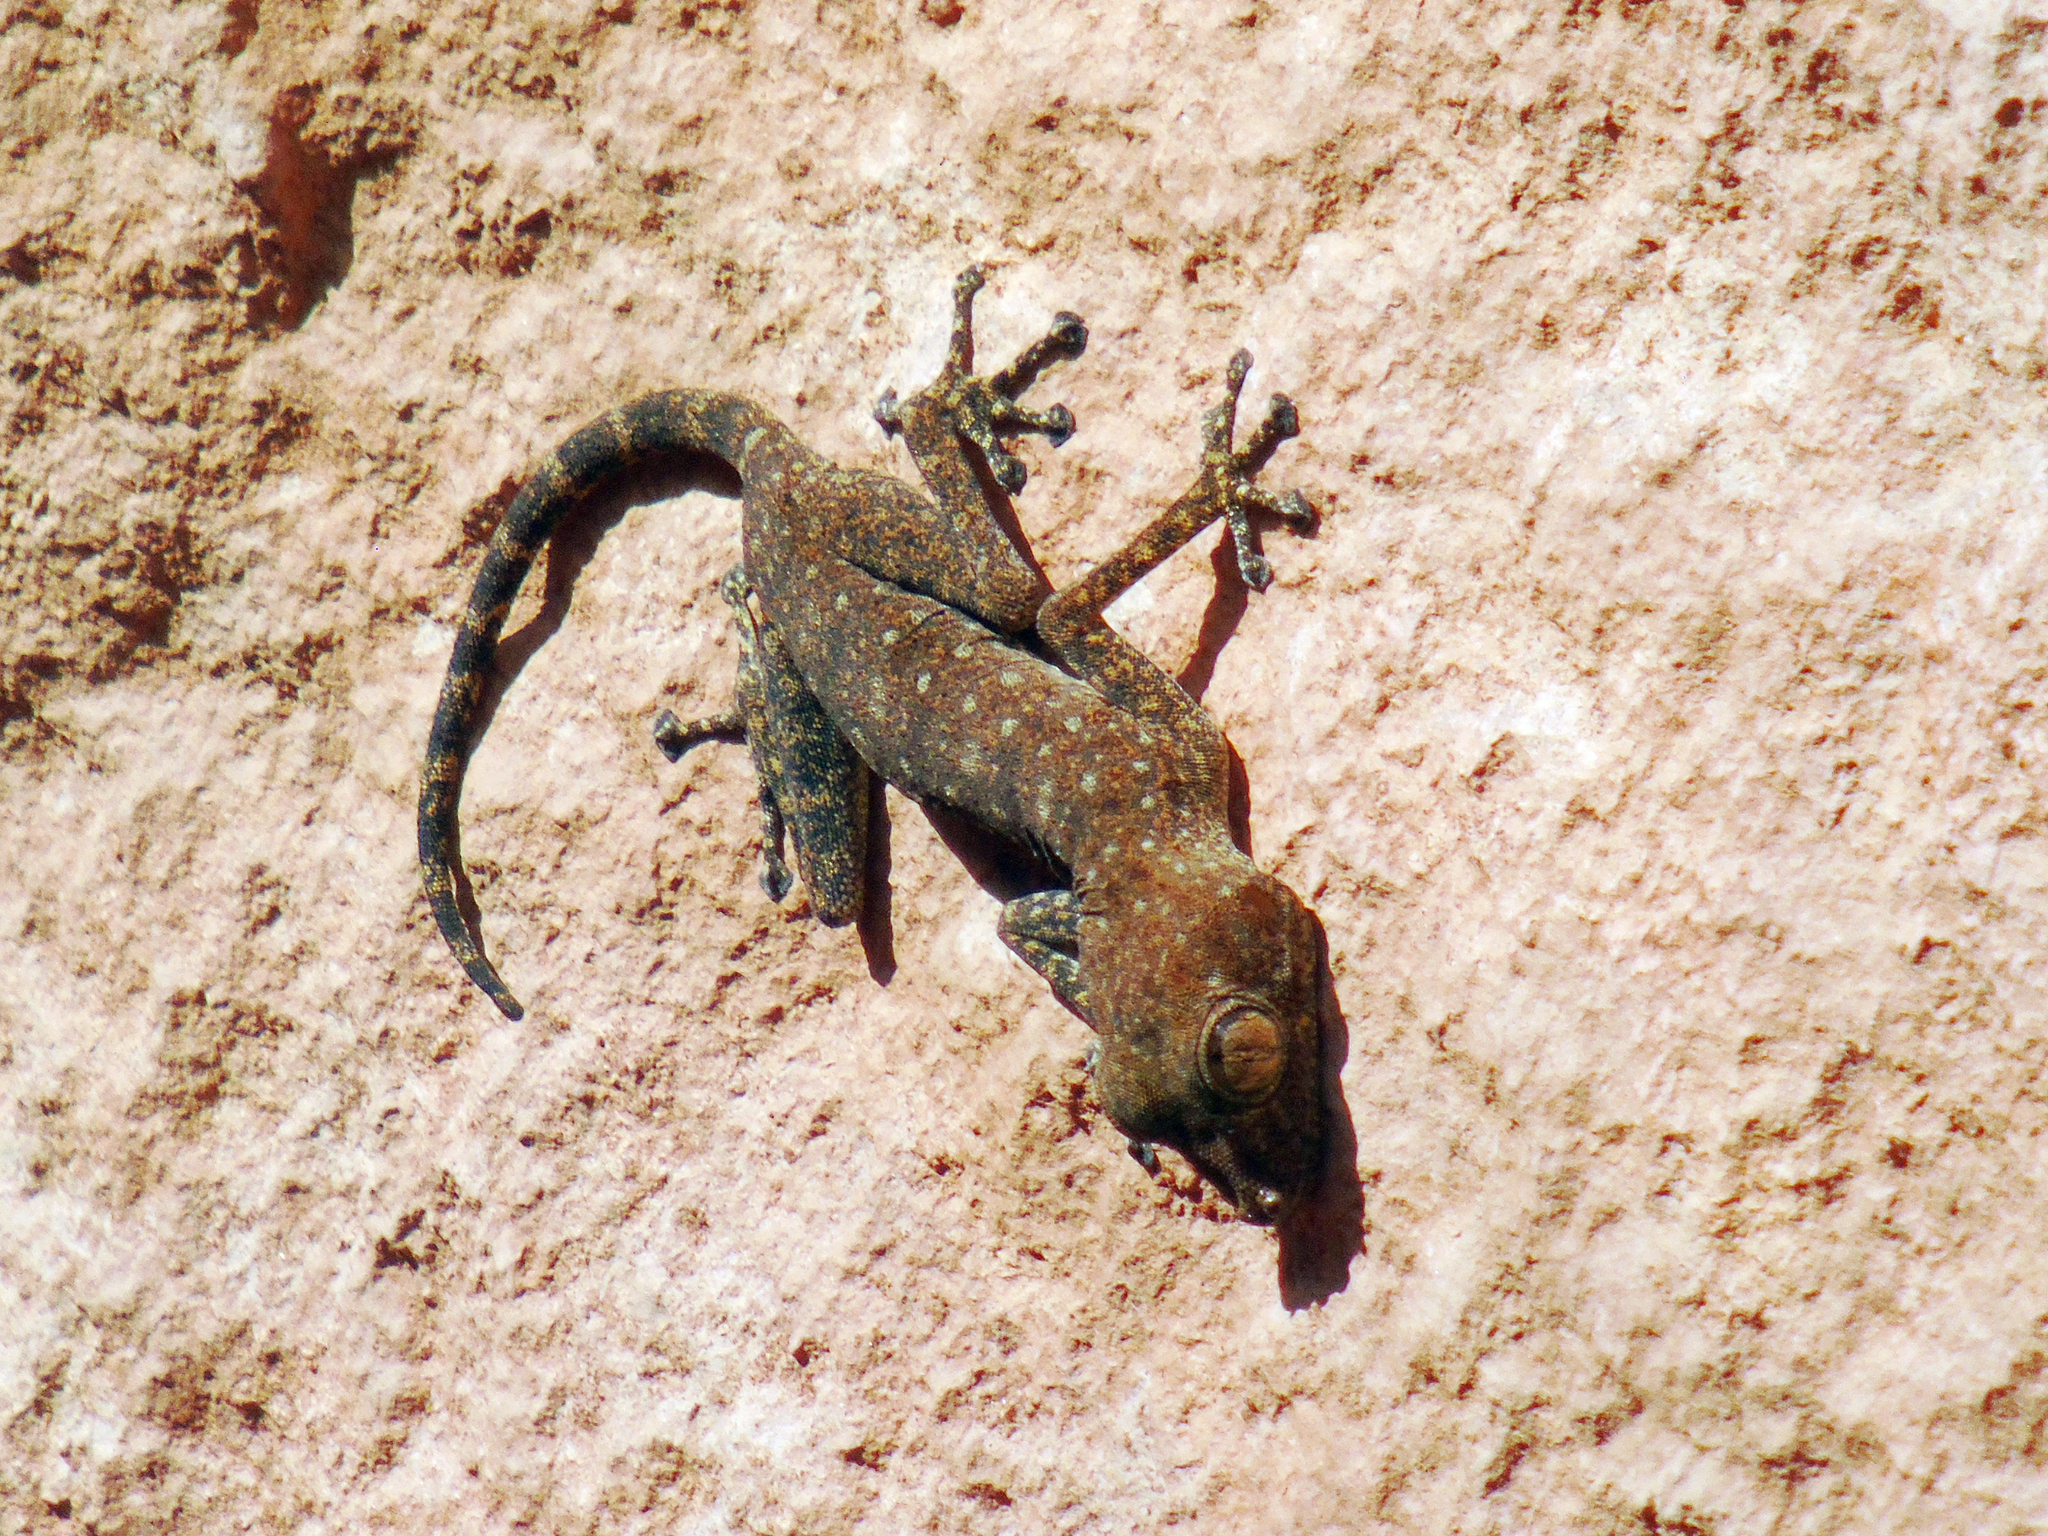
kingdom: Animalia
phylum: Chordata
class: Squamata
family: Phyllodactylidae
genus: Ptyodactylus
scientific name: Ptyodactylus guttatus
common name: Sinai fan-fingered gecko
